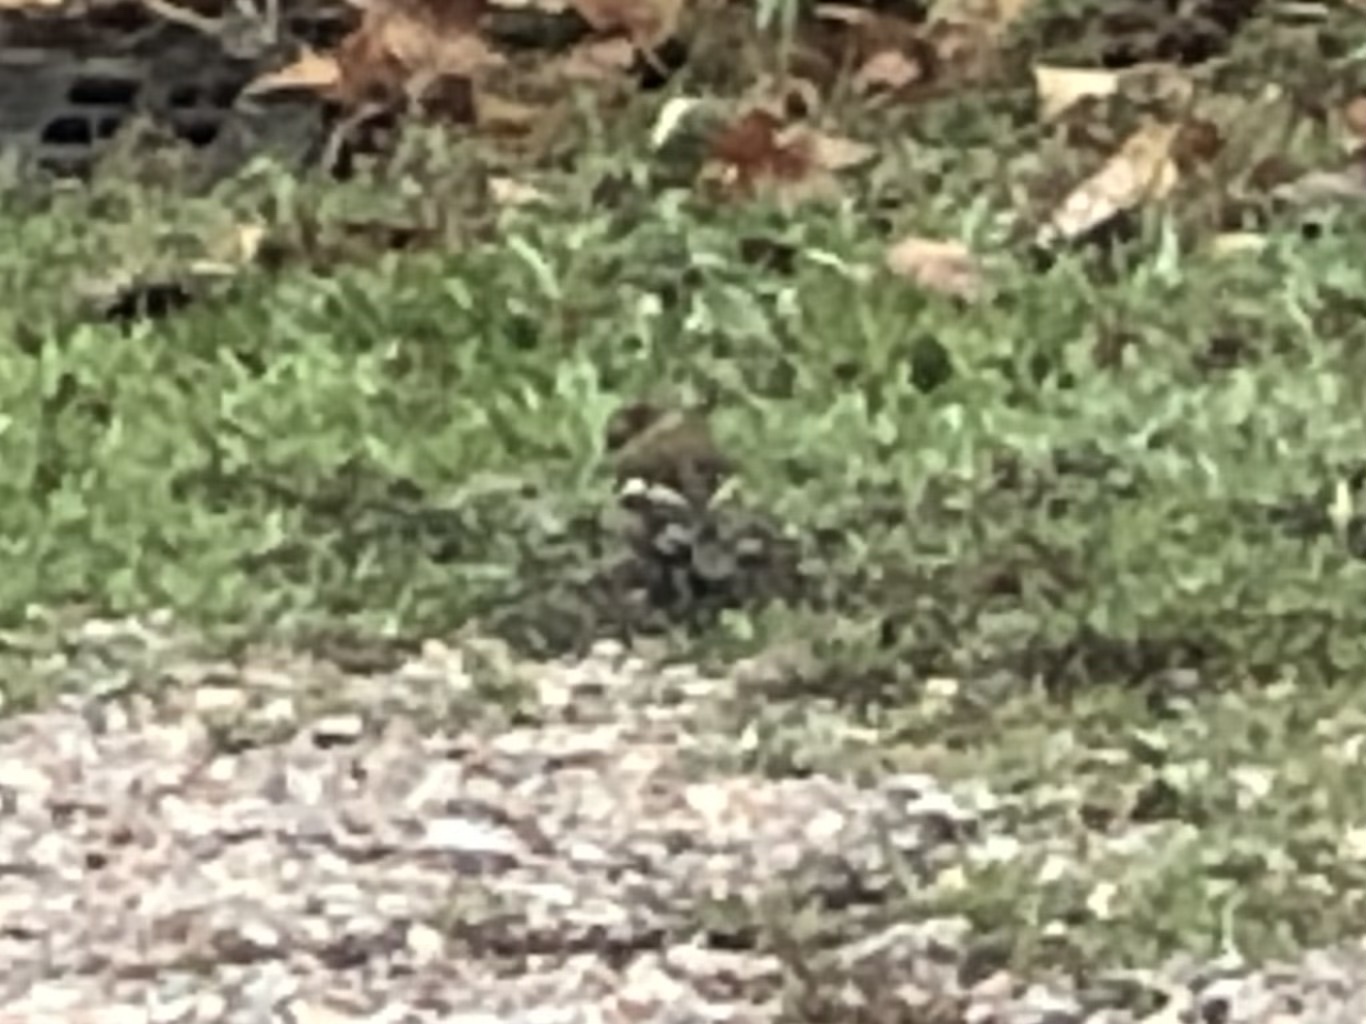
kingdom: Animalia
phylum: Chordata
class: Aves
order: Passeriformes
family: Fringillidae
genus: Fringilla
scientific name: Fringilla coelebs
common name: Common chaffinch
